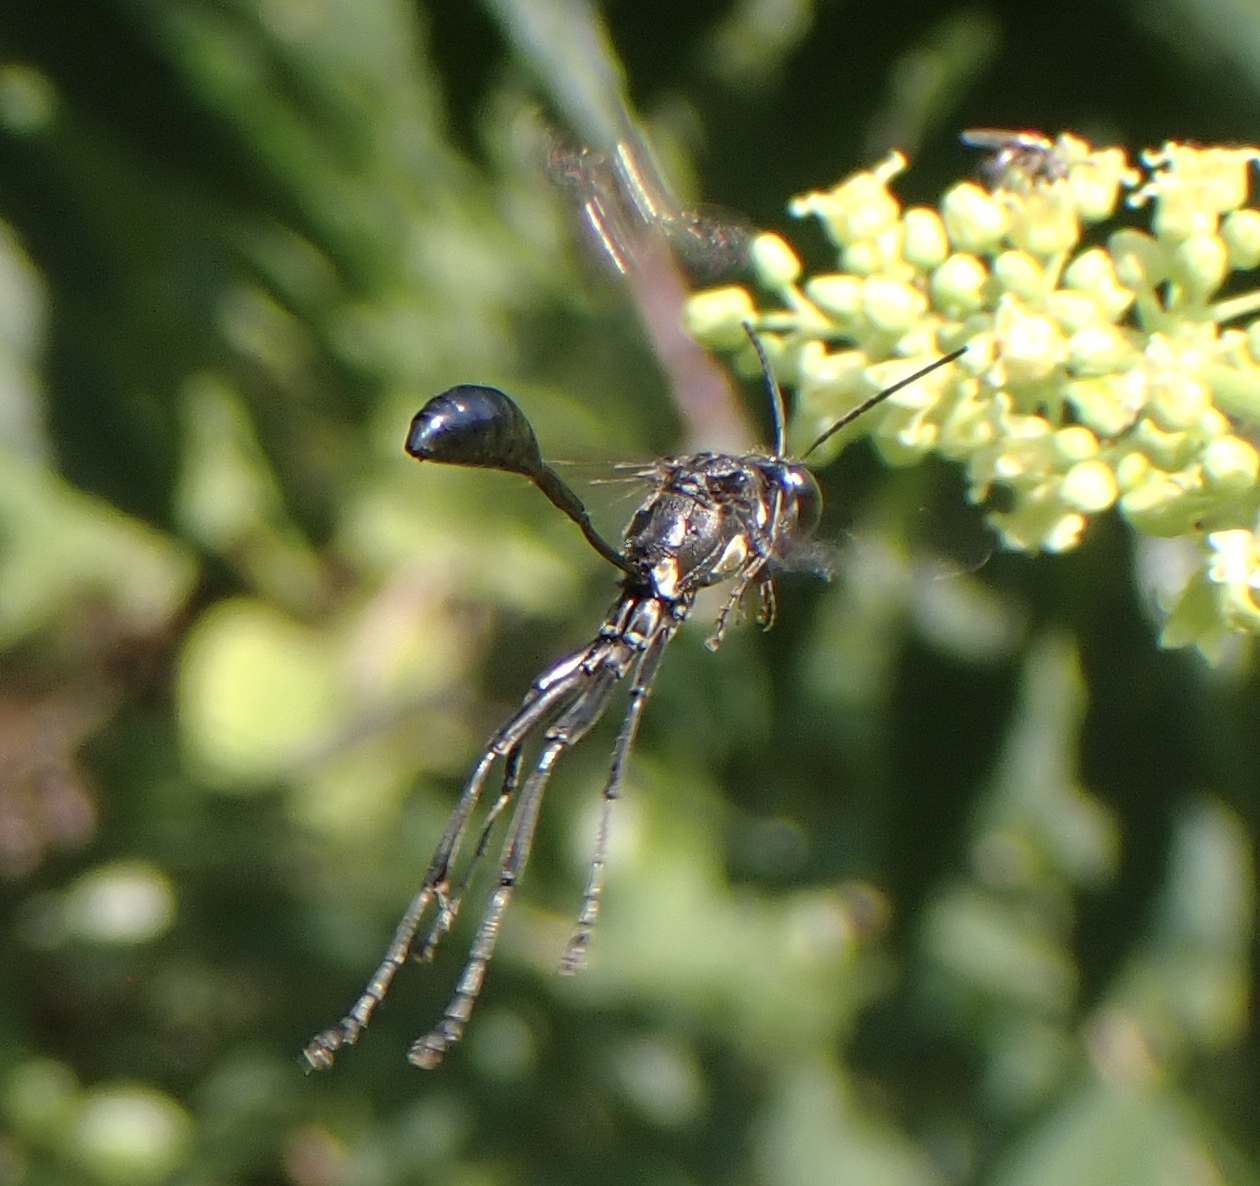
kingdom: Animalia
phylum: Arthropoda
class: Insecta
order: Hymenoptera
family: Sphecidae
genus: Eremnophila
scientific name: Eremnophila aureonotata
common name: Gold-marked thread-waisted wasp
